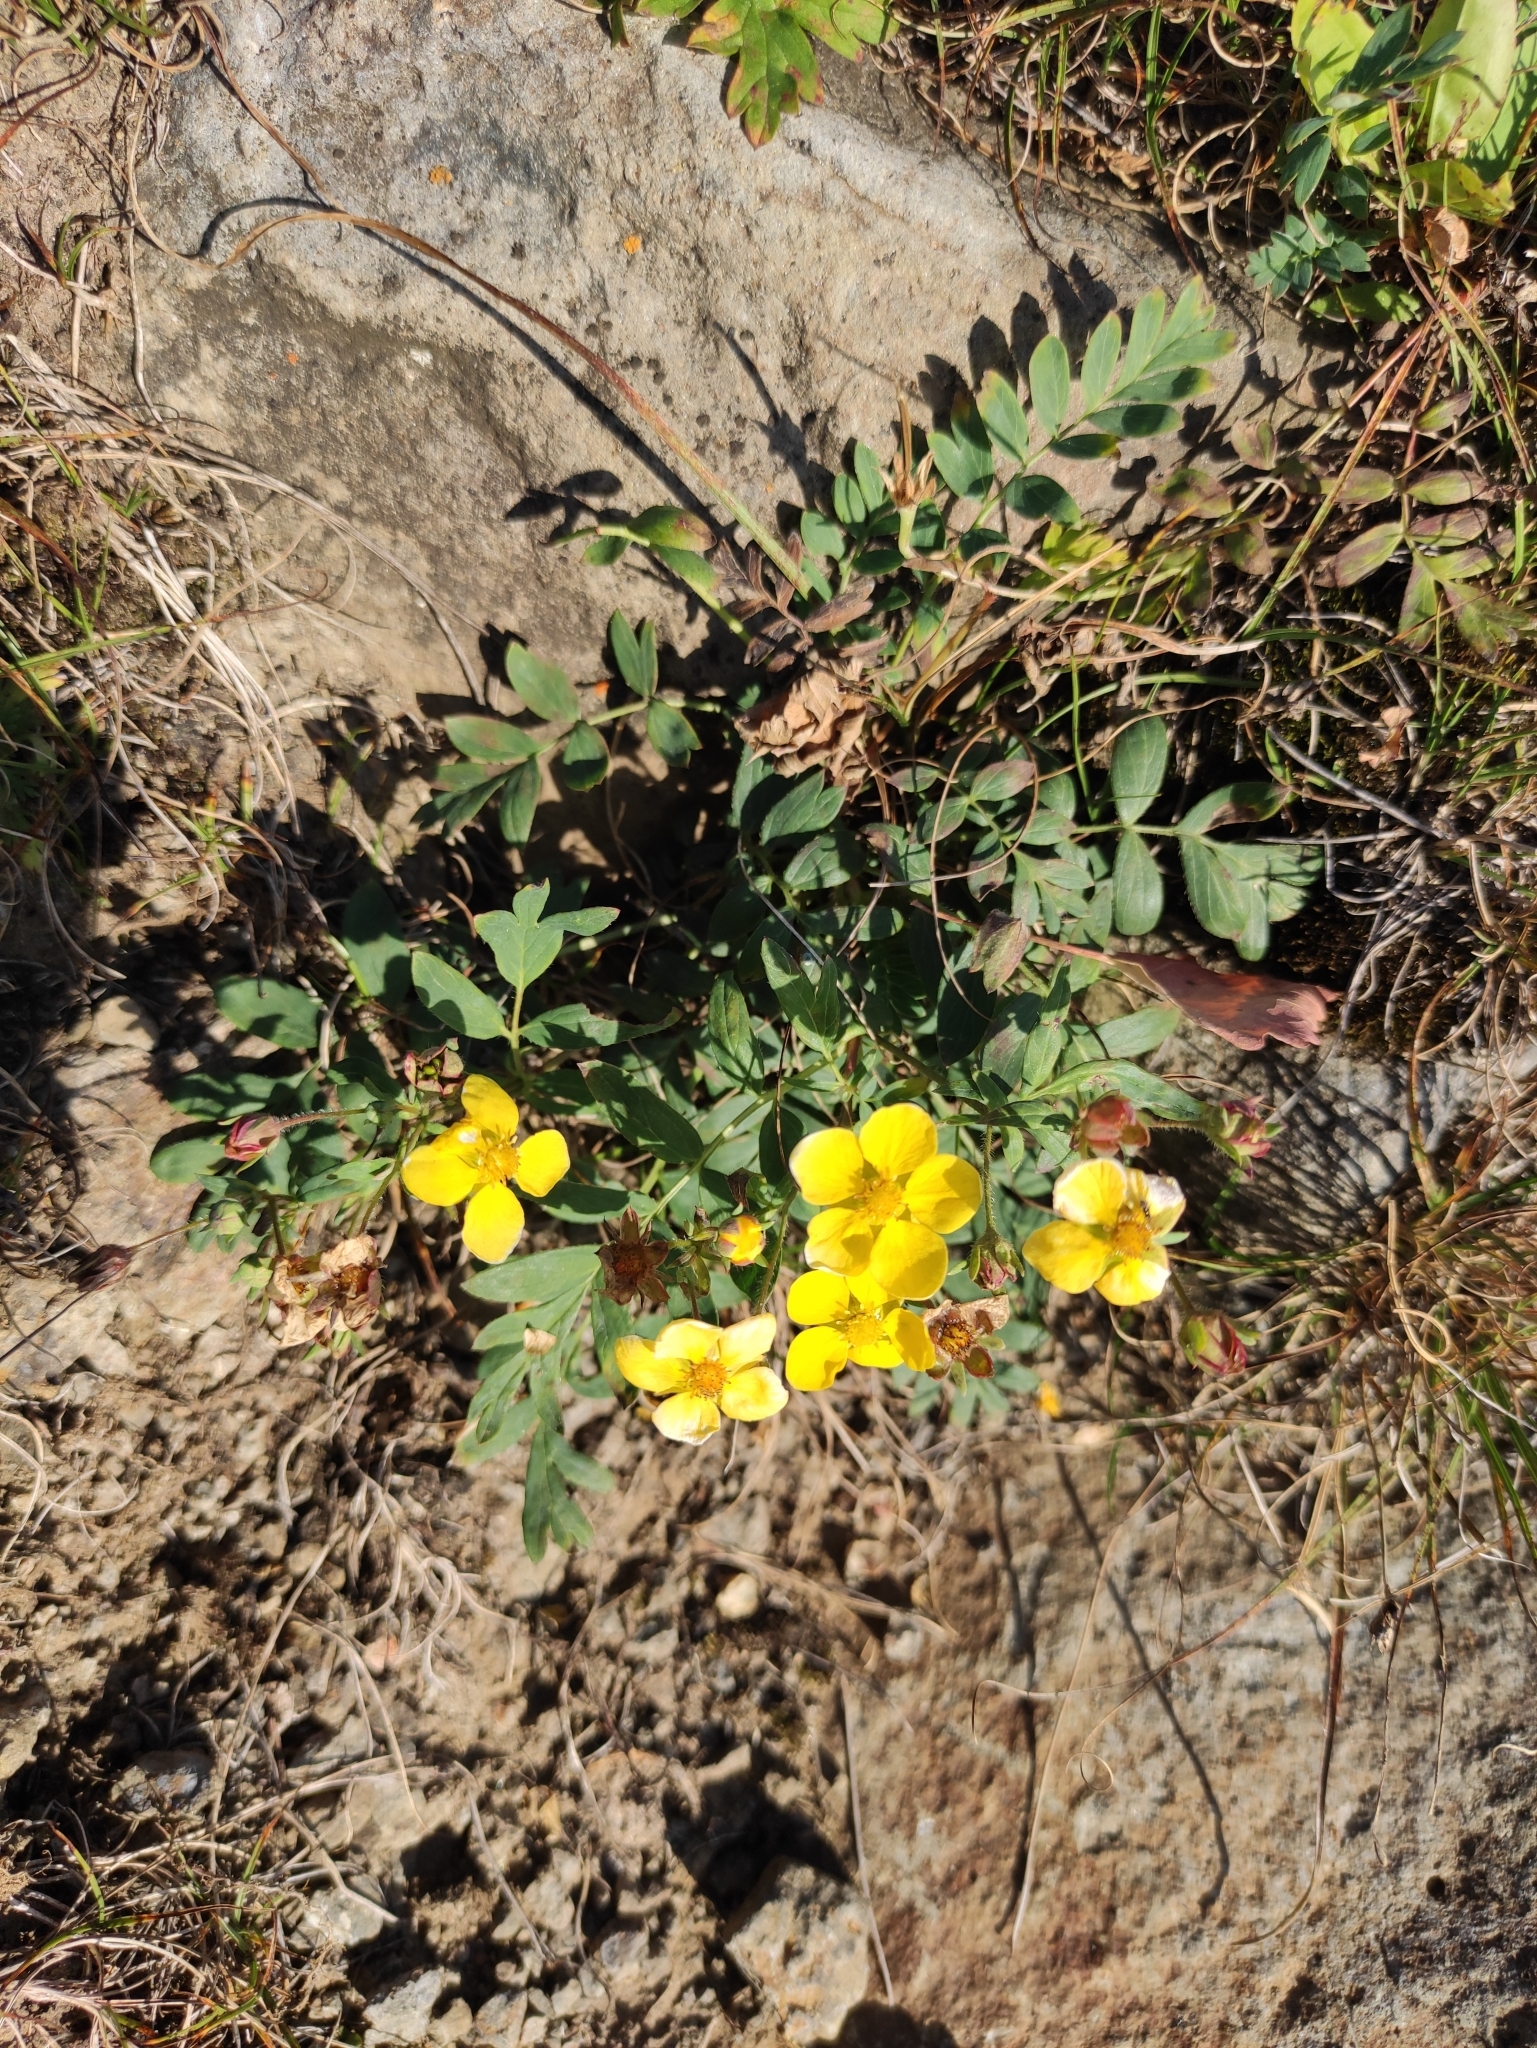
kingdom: Plantae
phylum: Tracheophyta
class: Magnoliopsida
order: Rosales
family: Rosaceae
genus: Sibbaldianthe
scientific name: Sibbaldianthe bifurca
